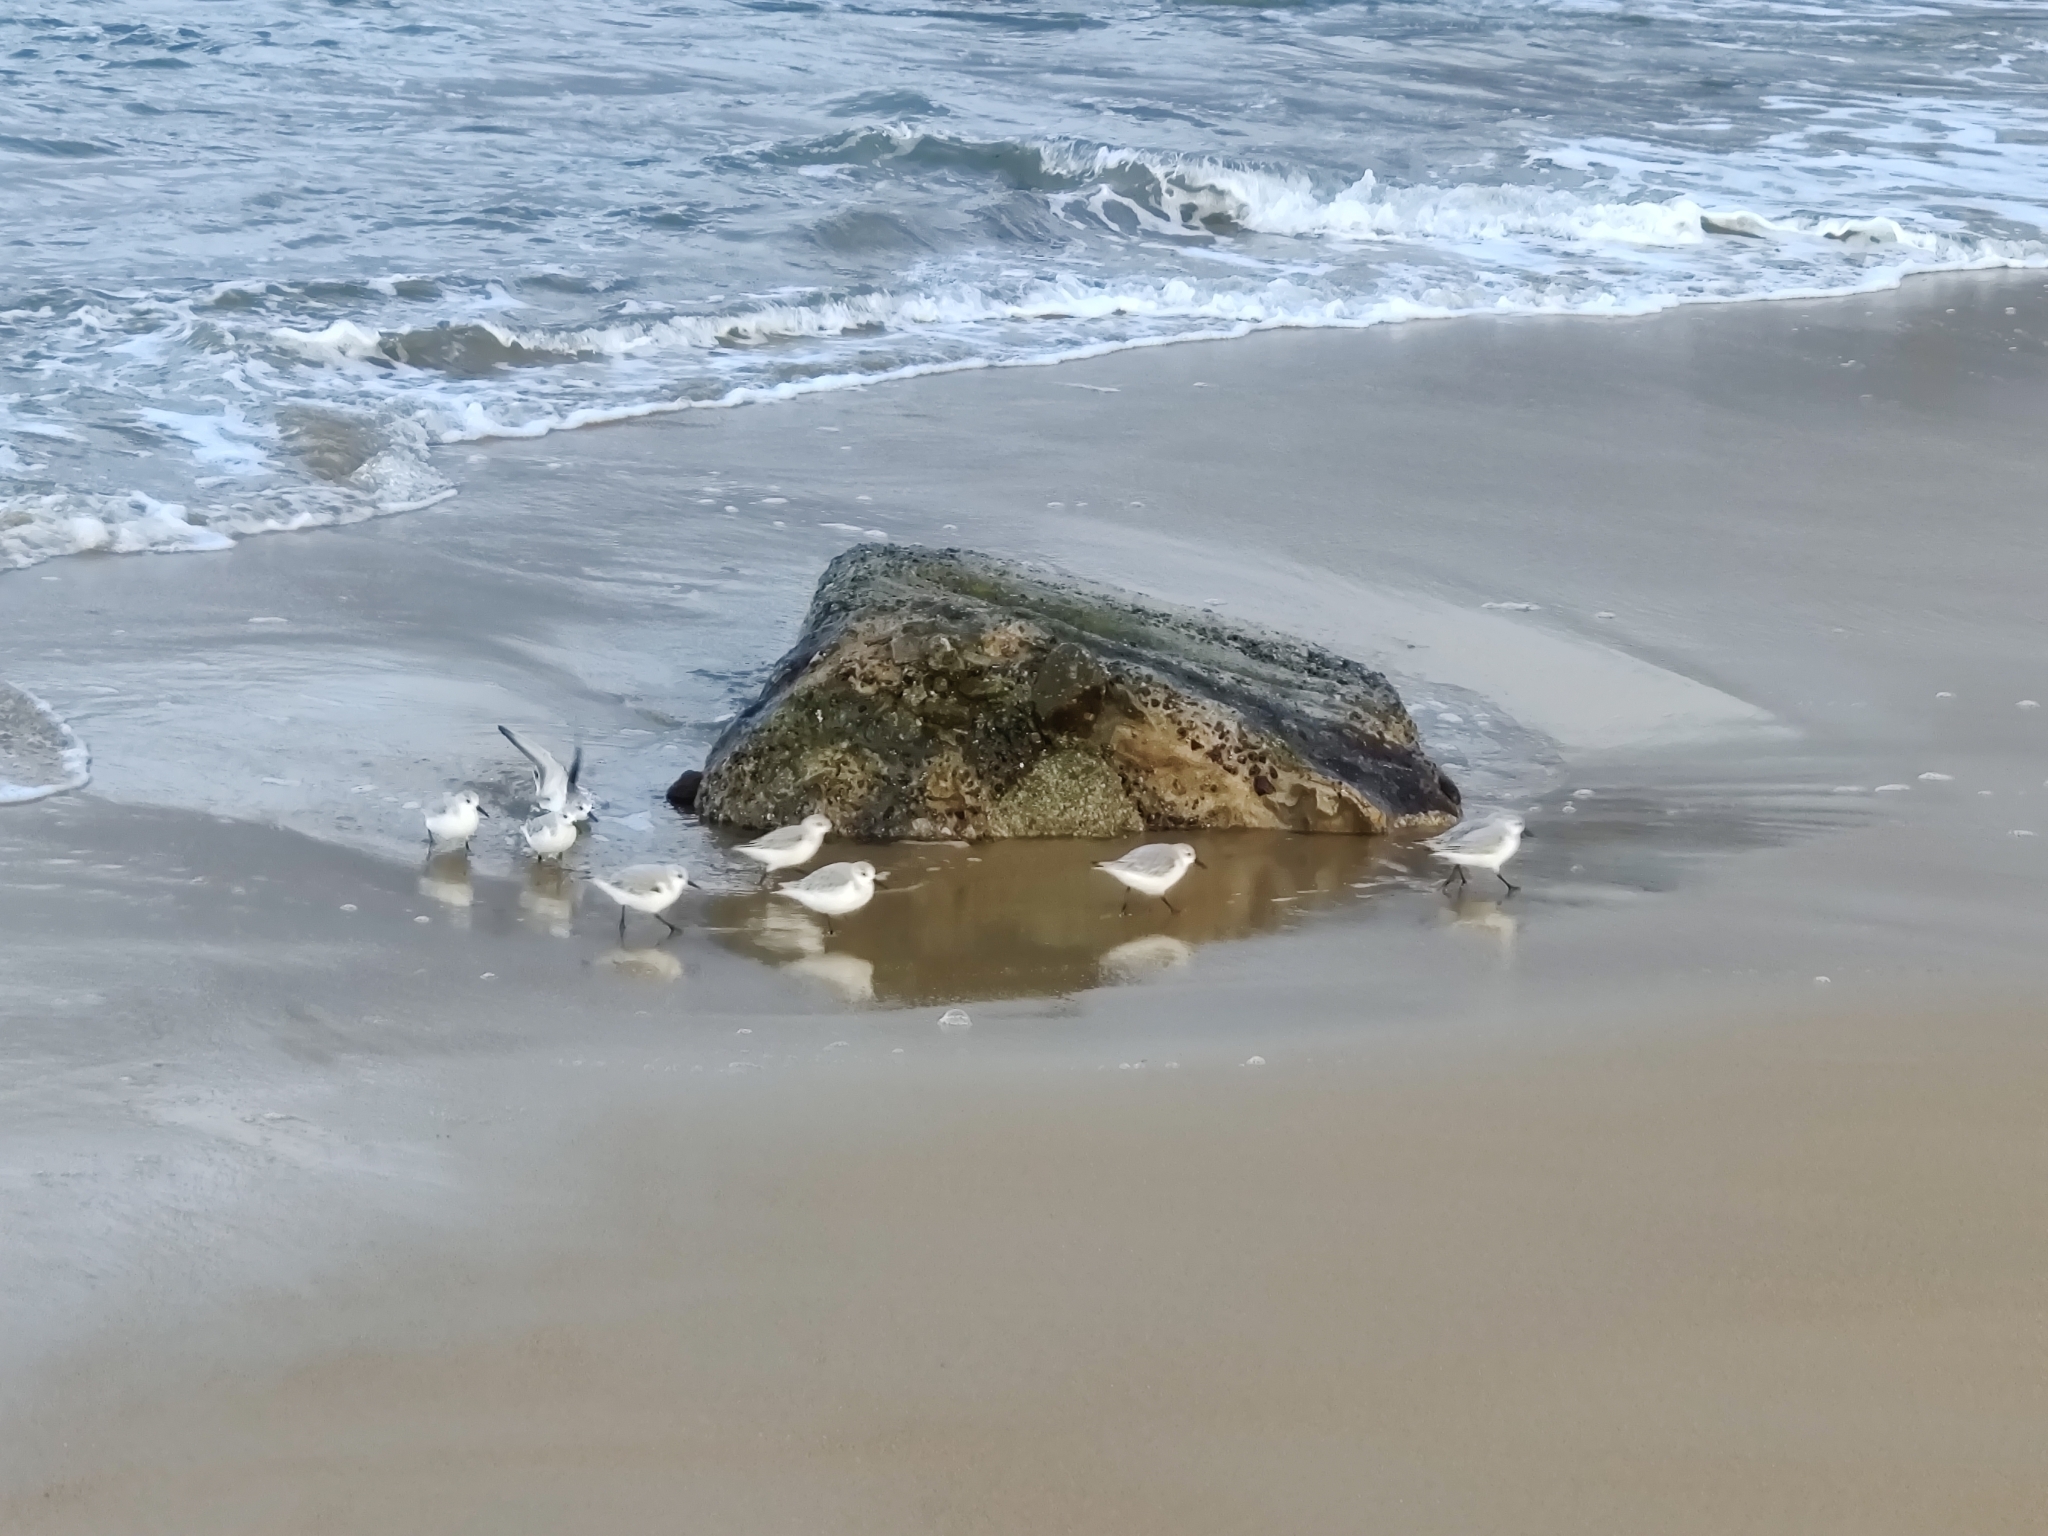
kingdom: Animalia
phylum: Chordata
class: Aves
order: Charadriiformes
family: Scolopacidae
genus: Calidris
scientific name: Calidris alba
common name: Sanderling
